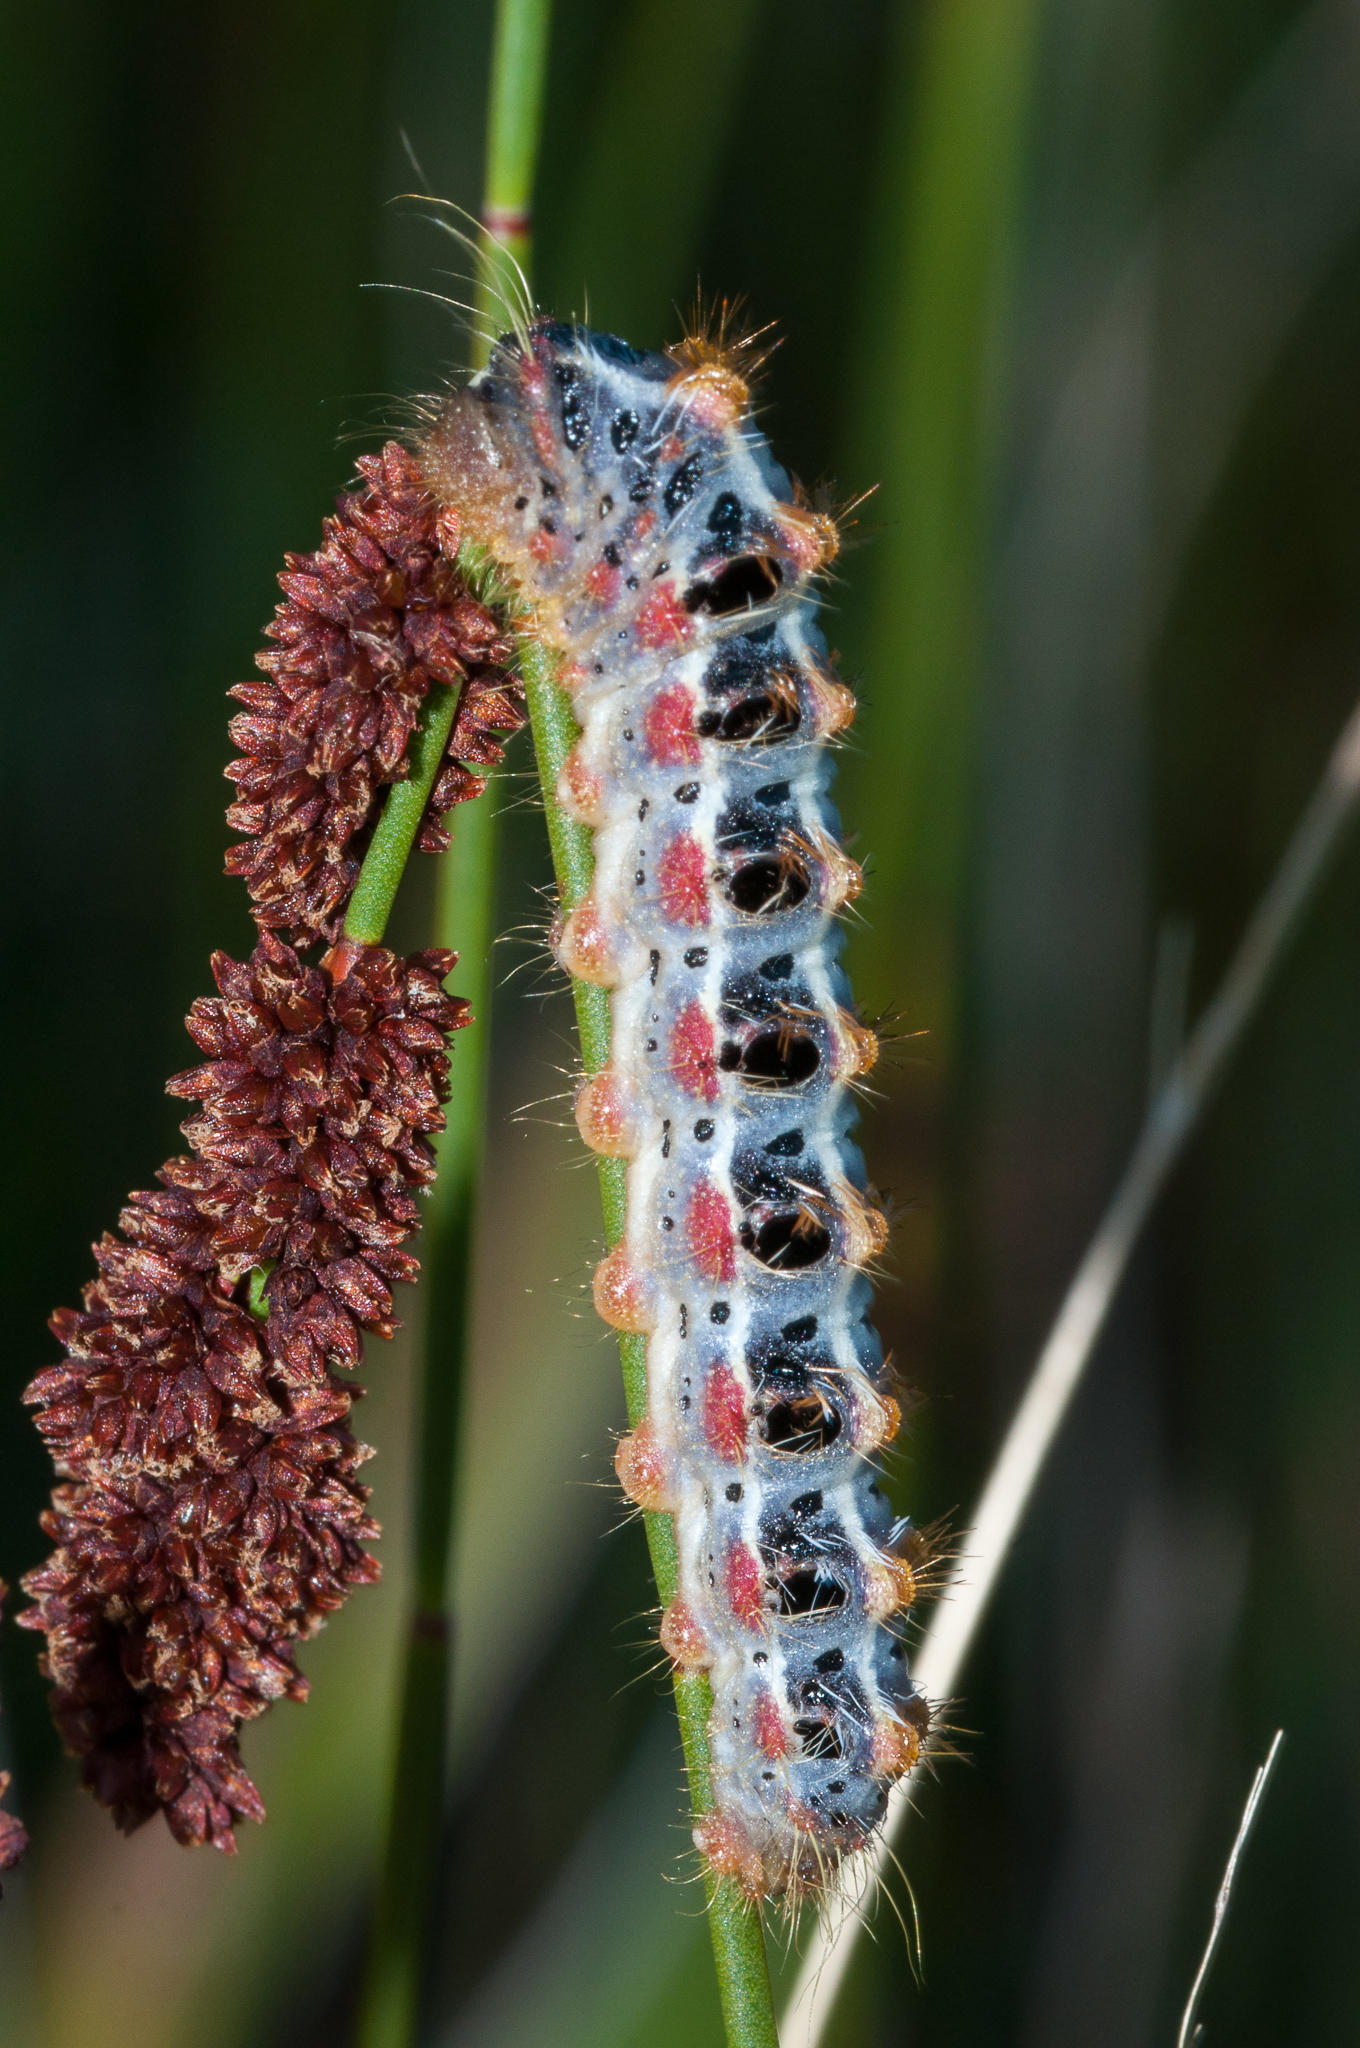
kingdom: Animalia
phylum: Arthropoda
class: Insecta
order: Lepidoptera
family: Somabrachyidae
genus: Psycharium
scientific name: Psycharium pellucens
